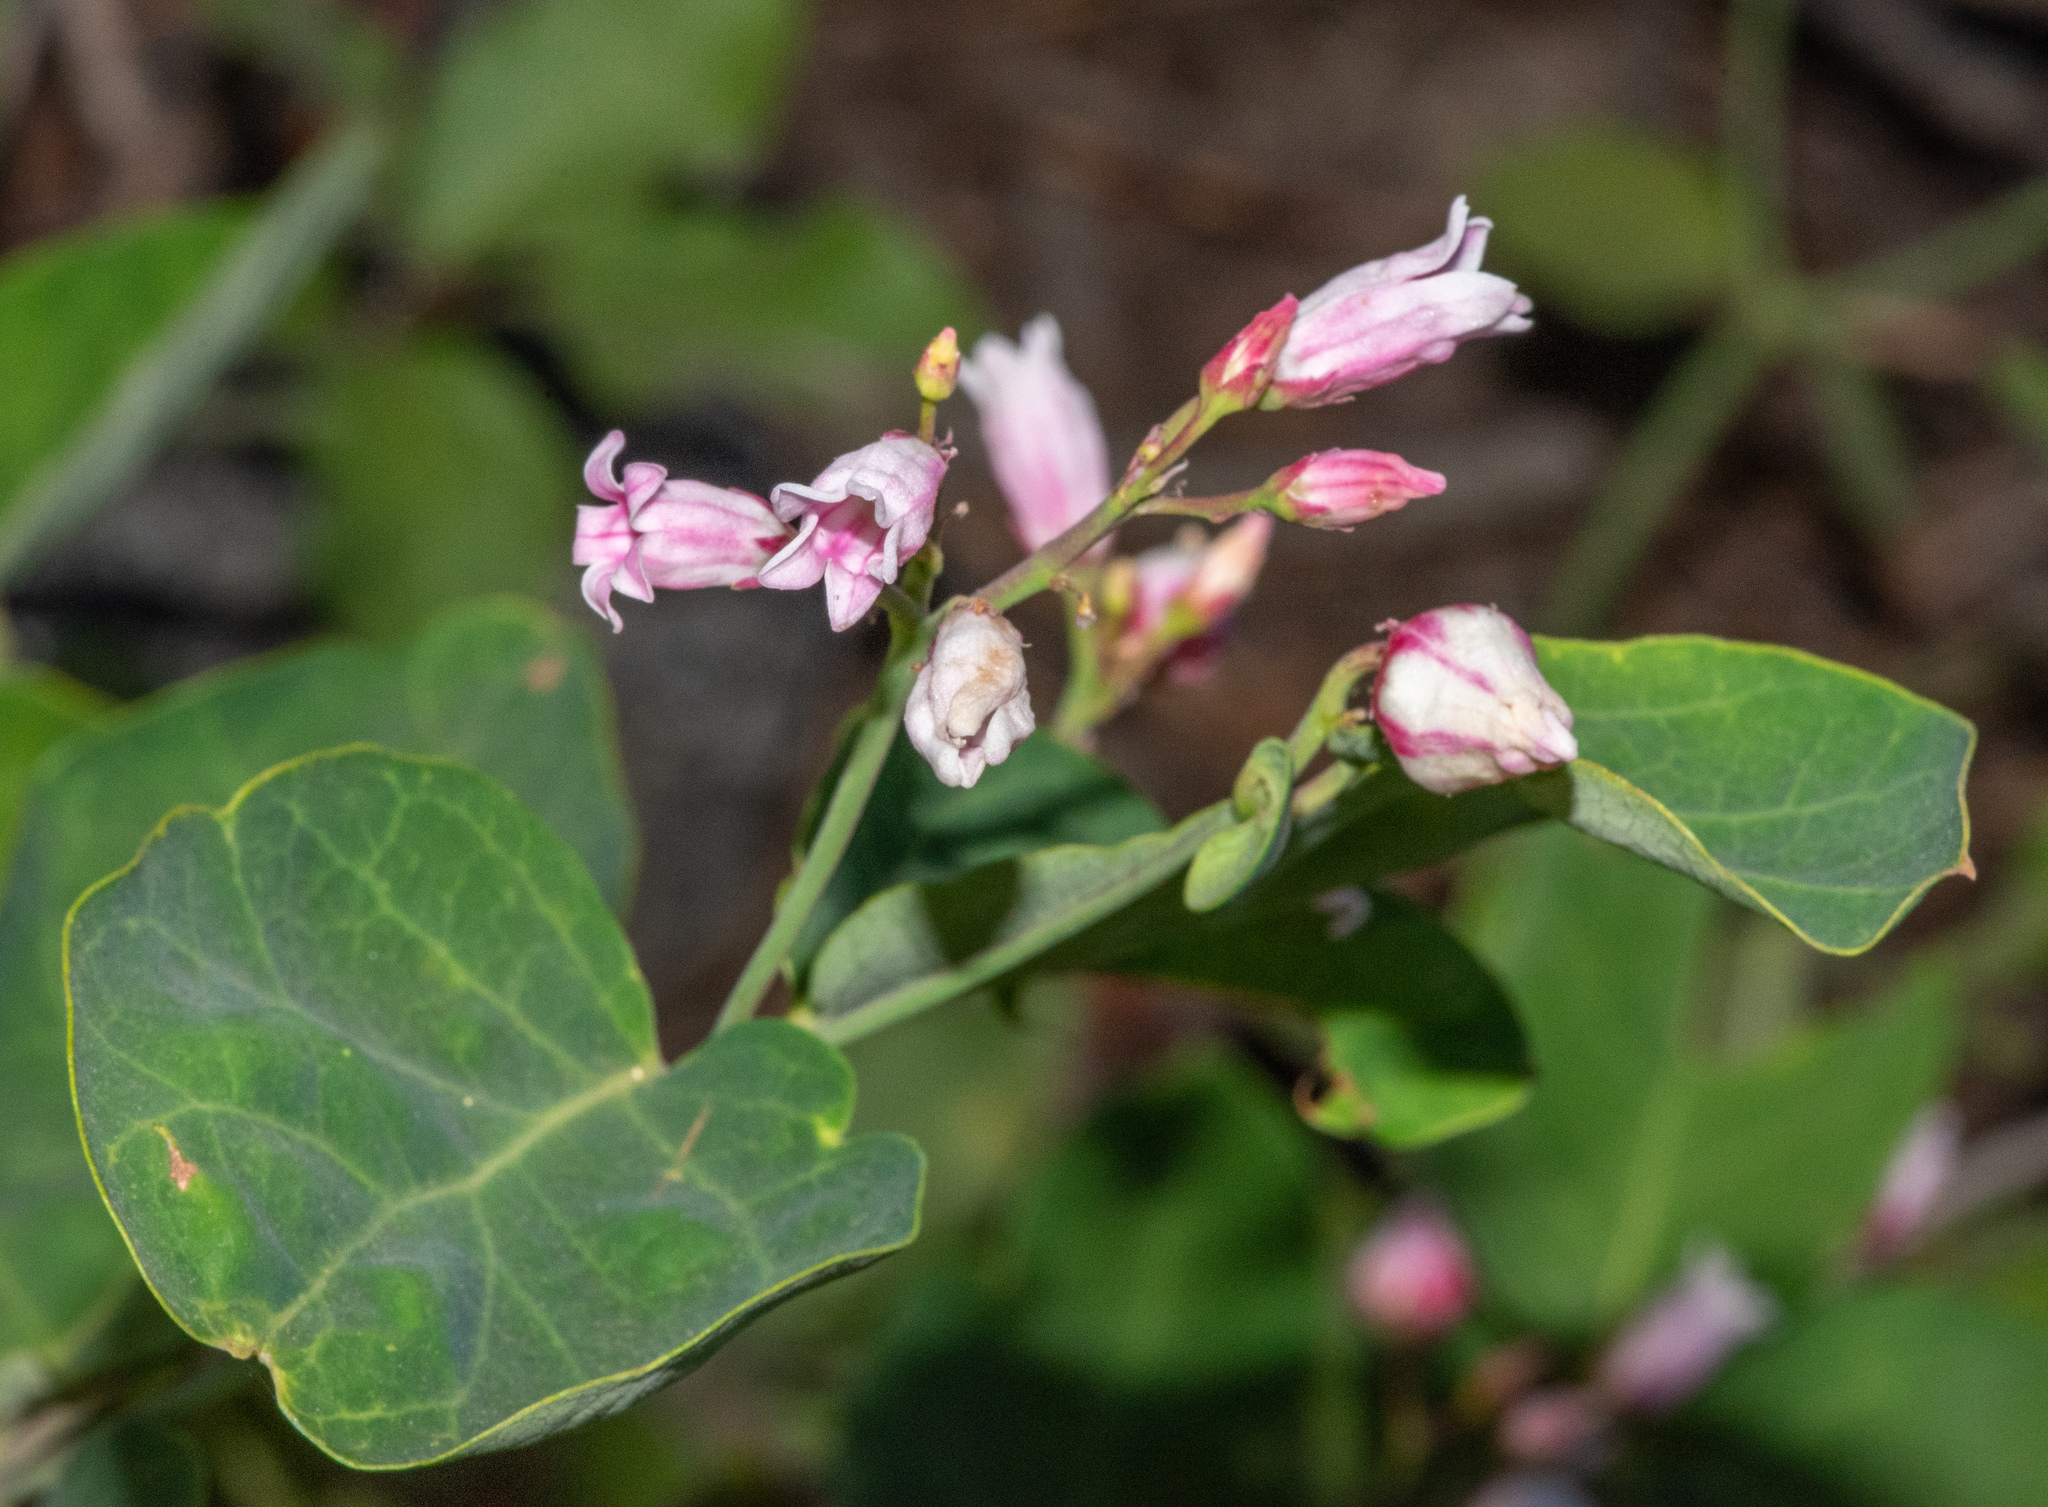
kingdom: Plantae
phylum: Tracheophyta
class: Magnoliopsida
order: Gentianales
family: Apocynaceae
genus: Apocynum
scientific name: Apocynum androsaemifolium
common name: Spreading dogbane
